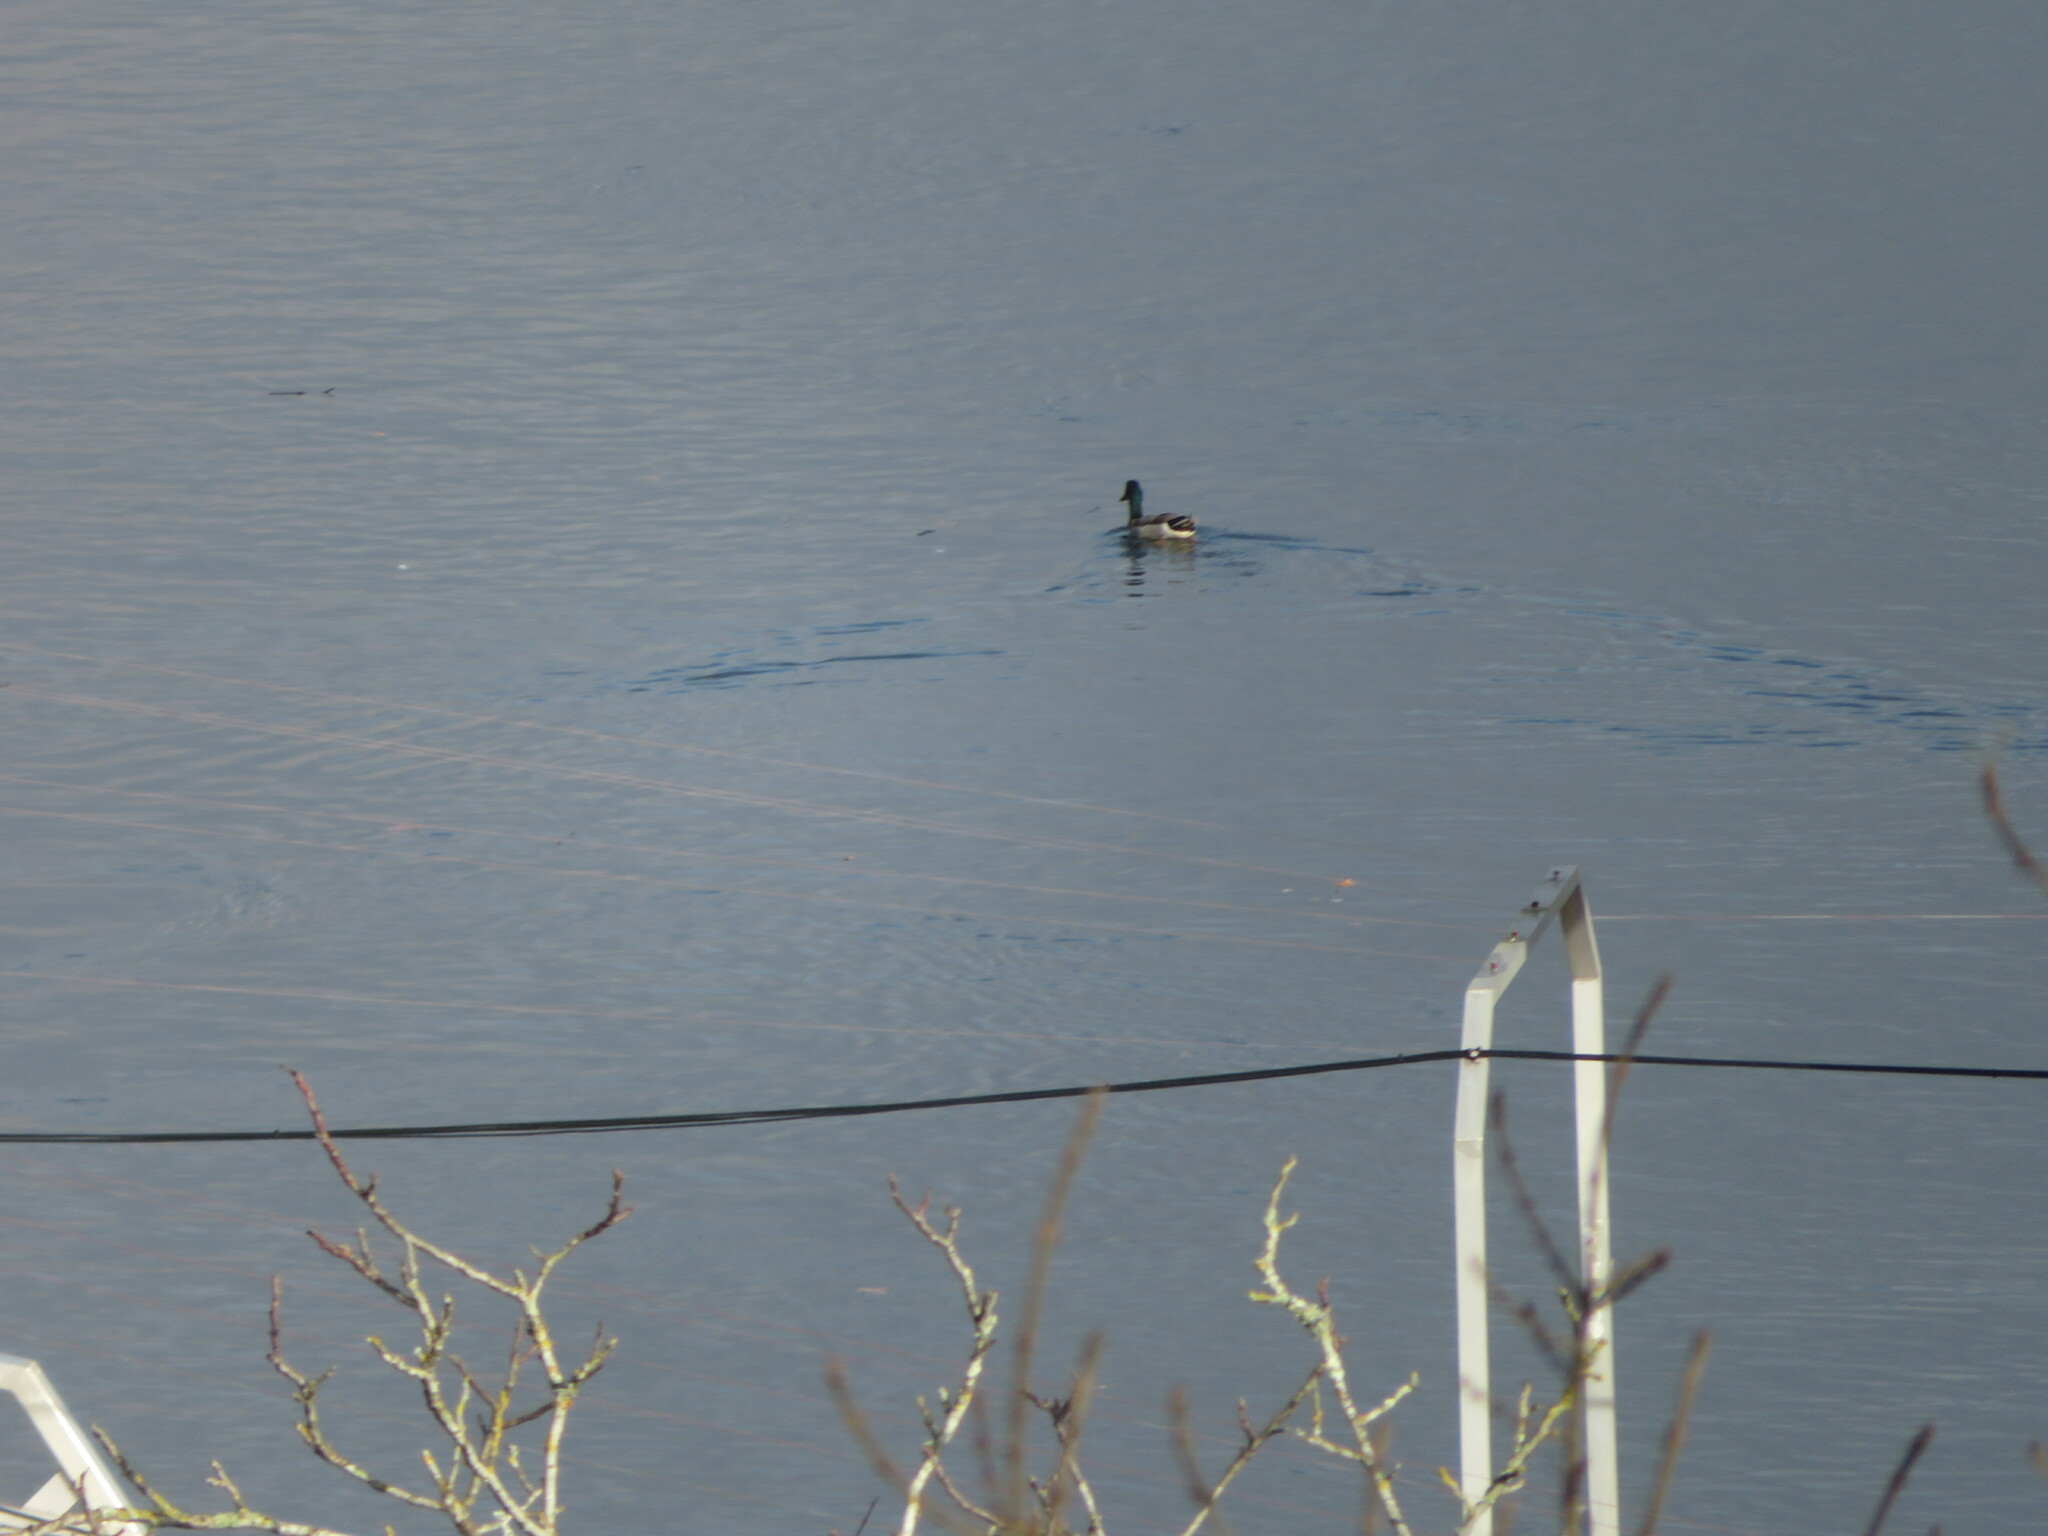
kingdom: Animalia
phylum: Chordata
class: Aves
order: Anseriformes
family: Anatidae
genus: Anas
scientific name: Anas platyrhynchos
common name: Mallard
